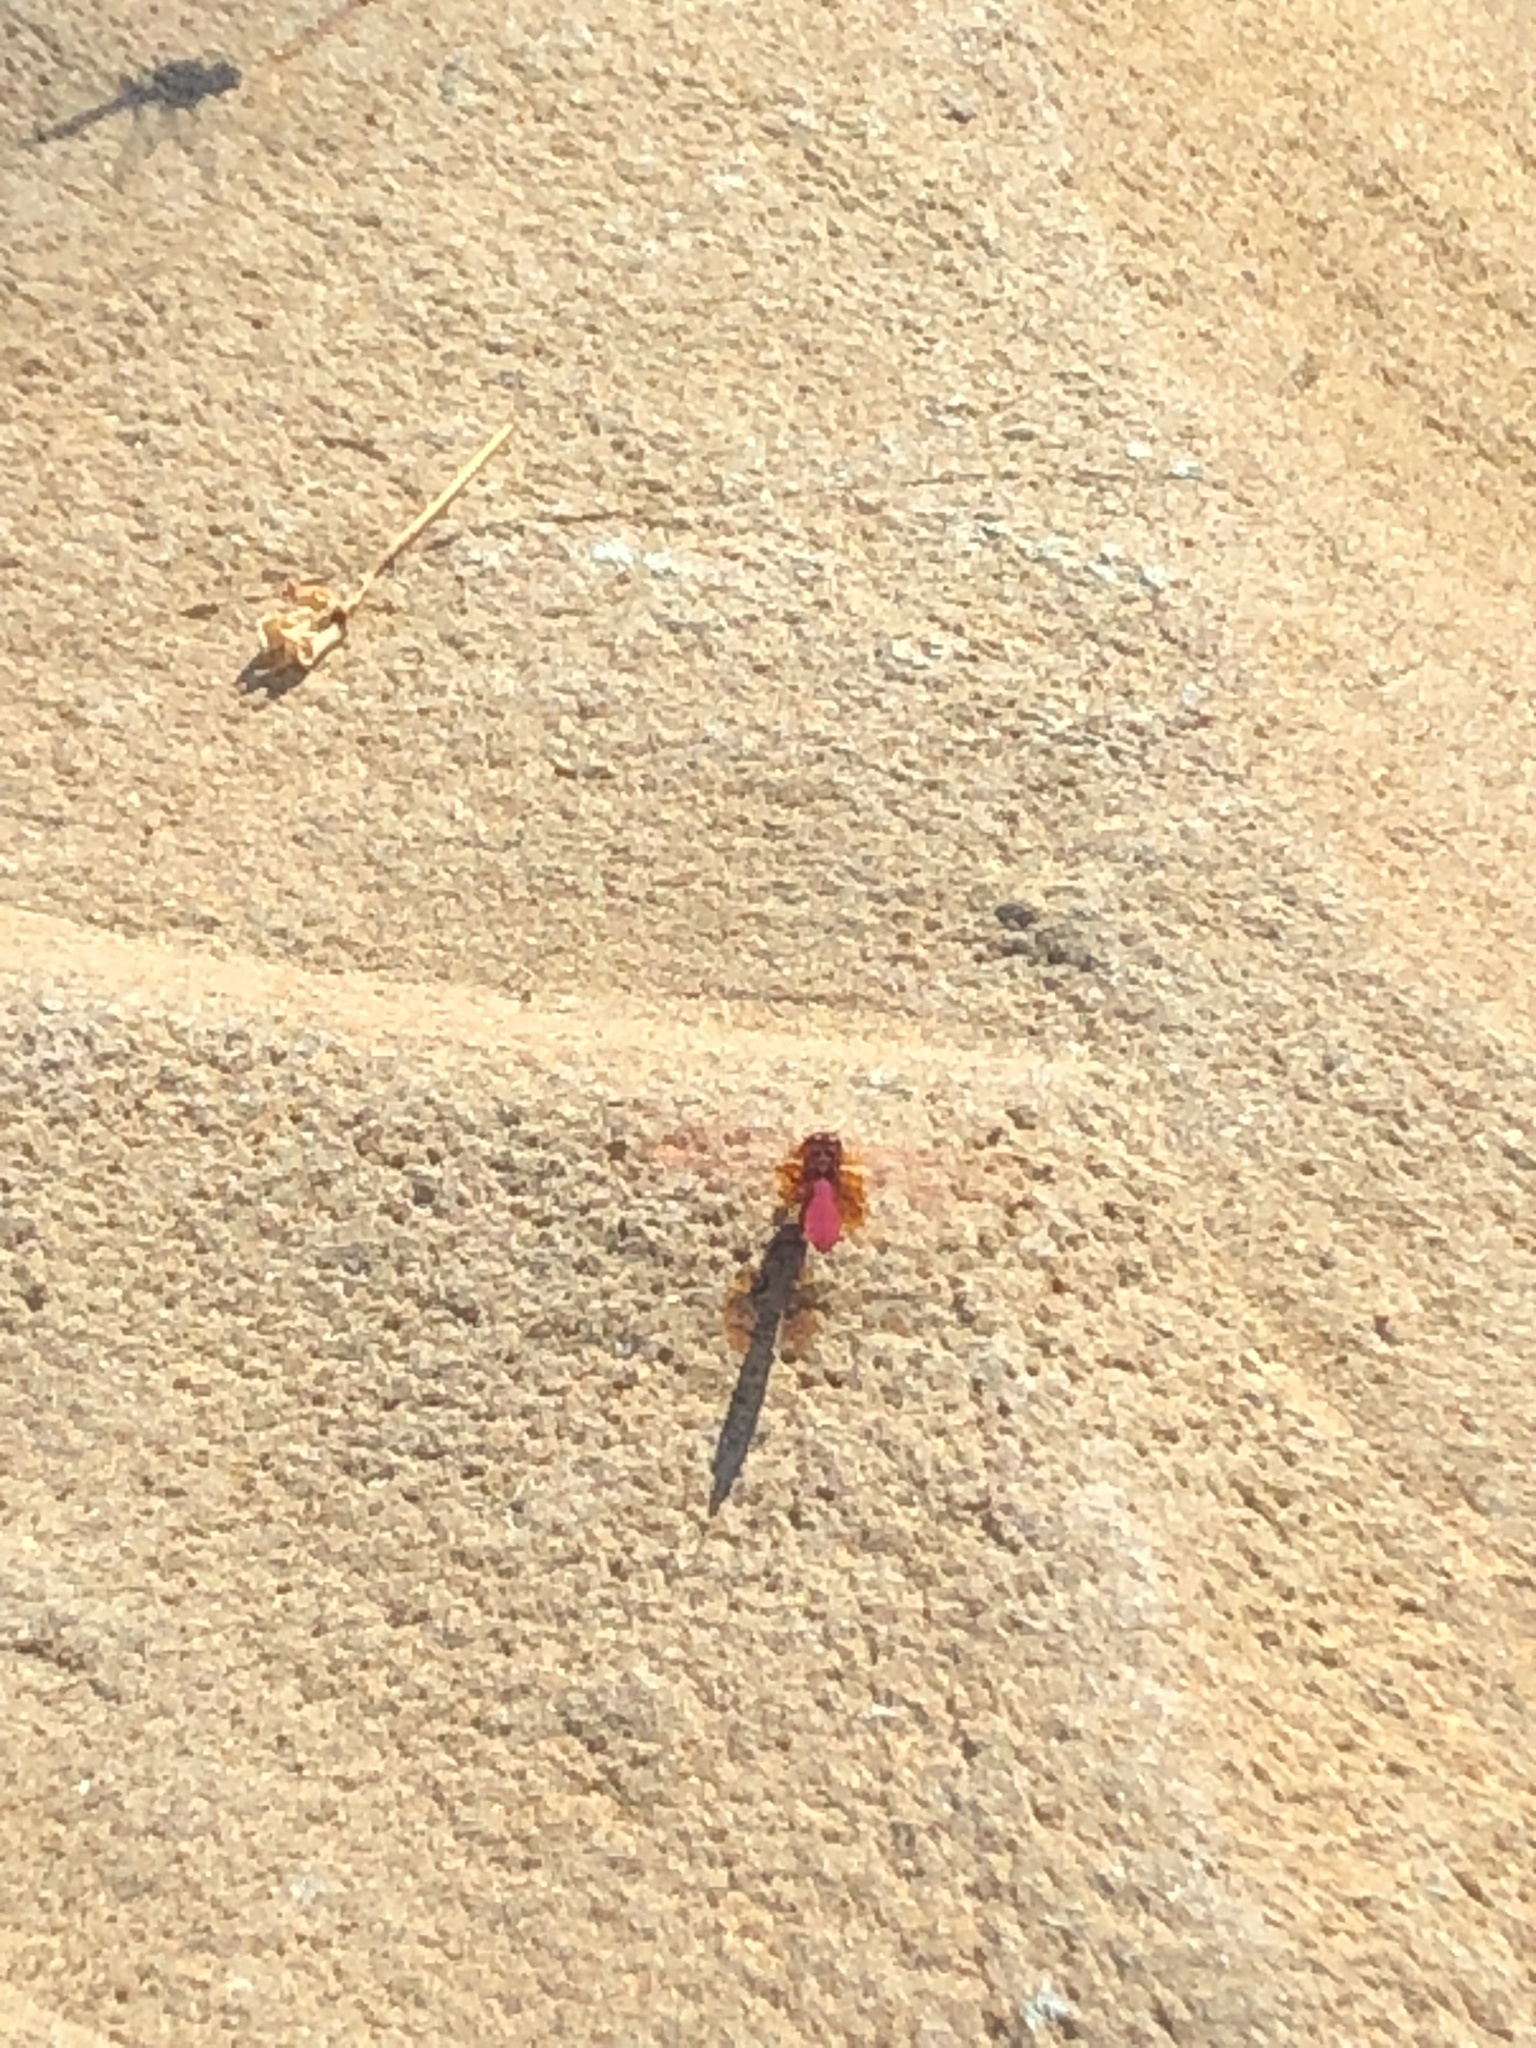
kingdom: Animalia
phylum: Arthropoda
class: Insecta
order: Odonata
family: Libellulidae
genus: Trithemis
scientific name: Trithemis aurora
